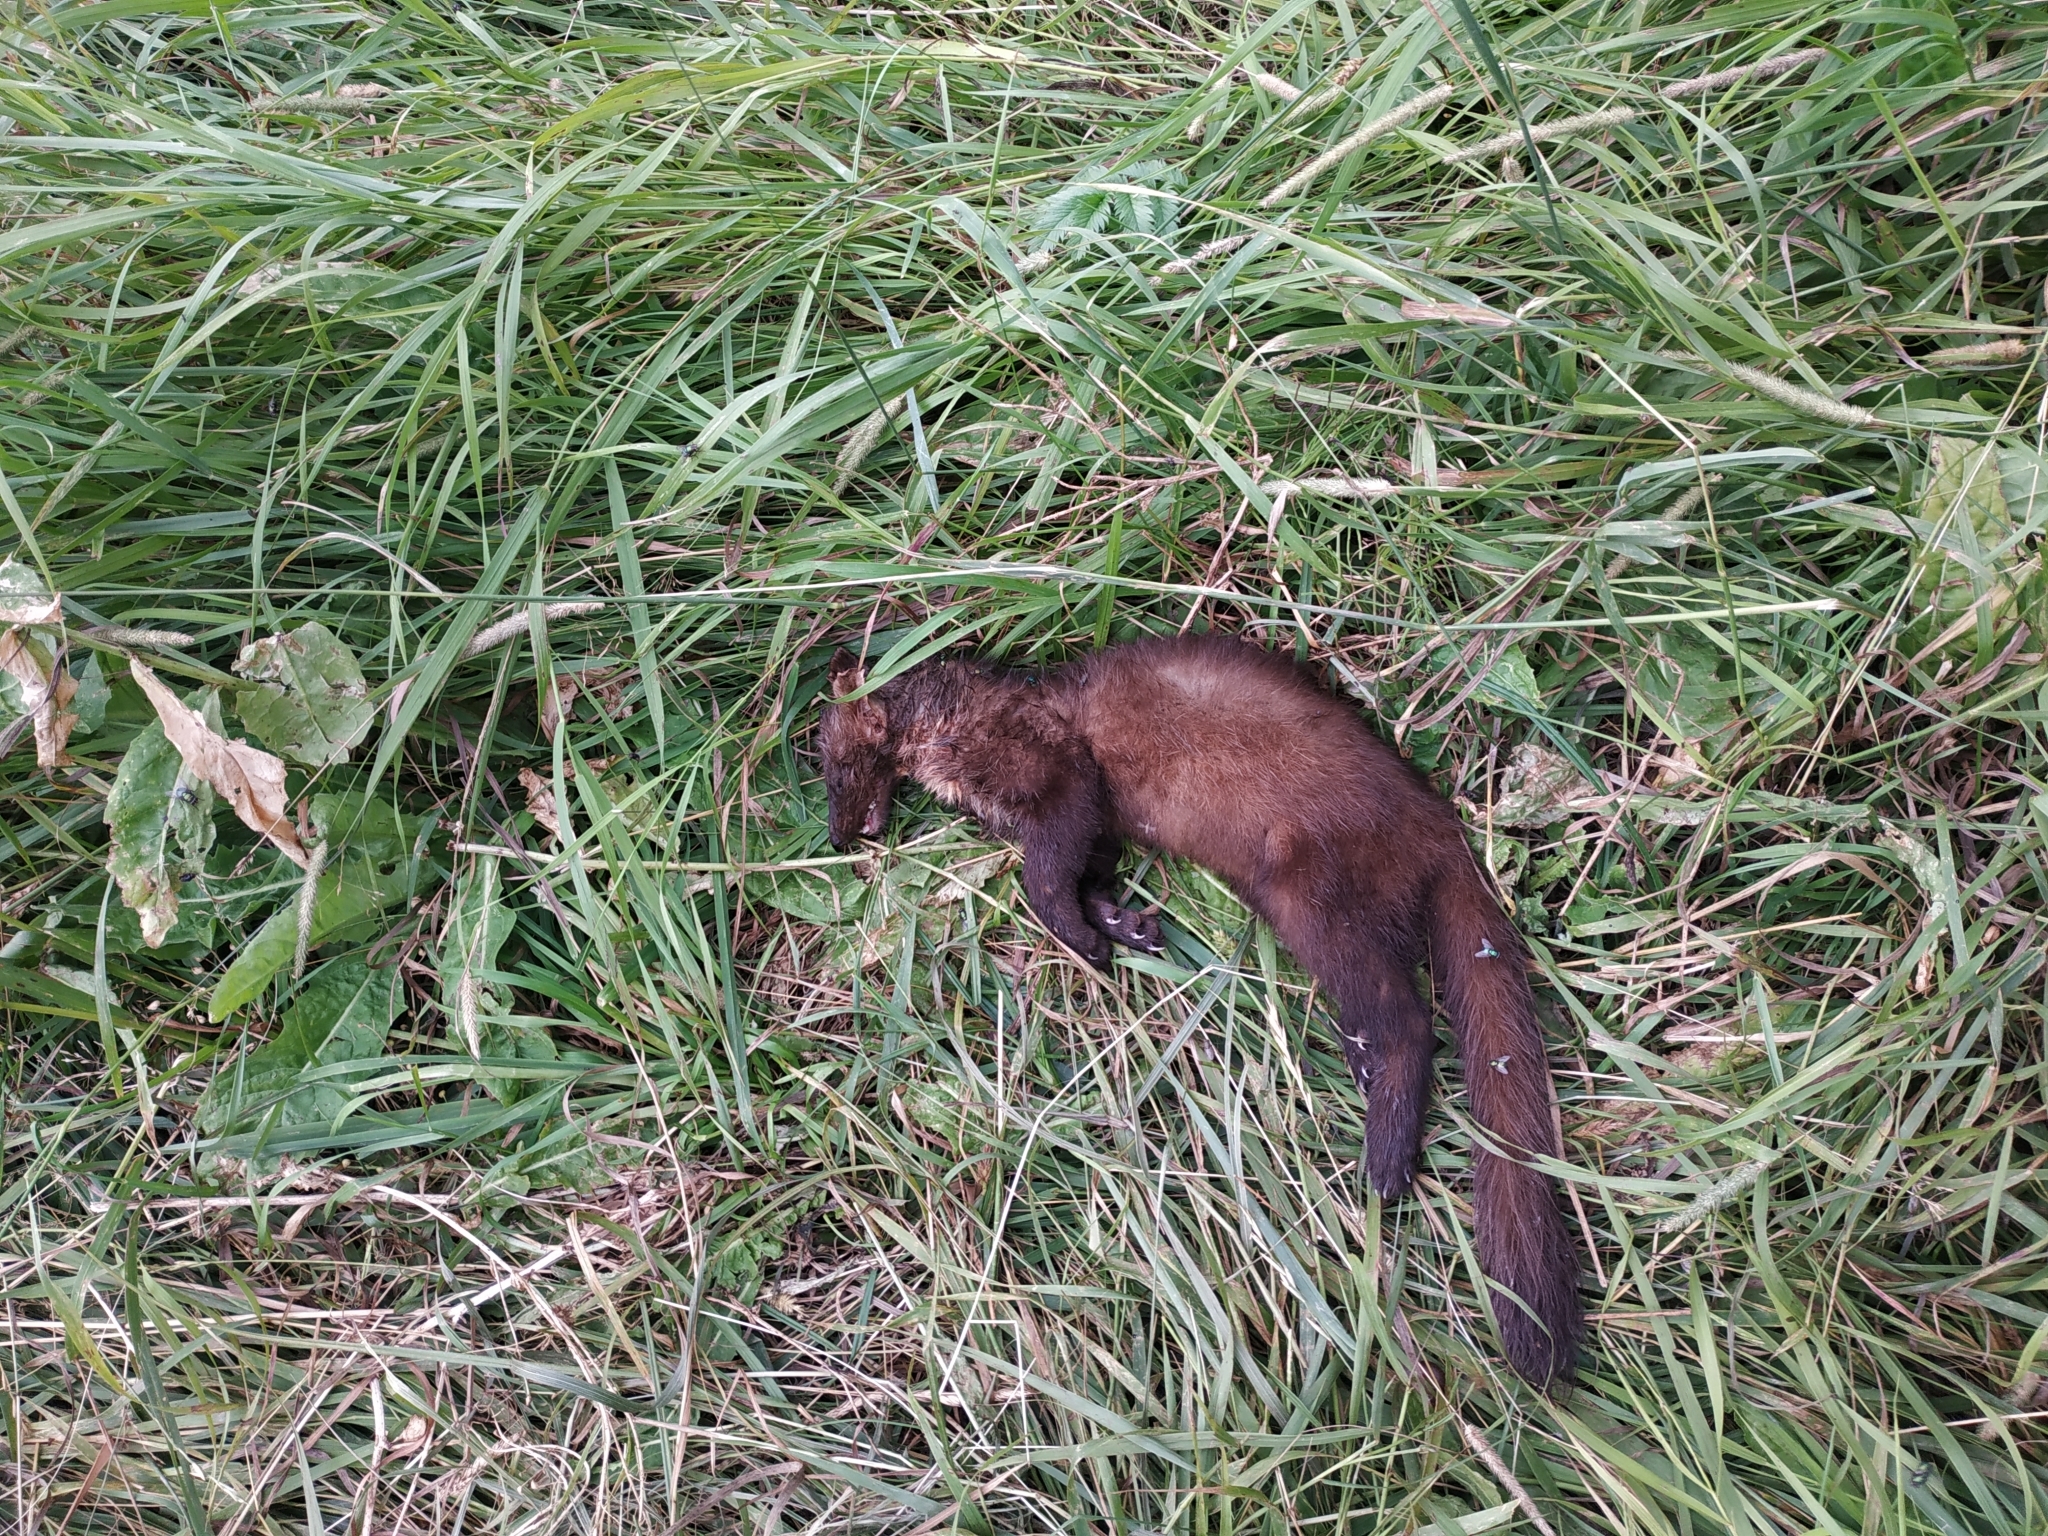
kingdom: Animalia
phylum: Chordata
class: Mammalia
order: Carnivora
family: Mustelidae
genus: Martes
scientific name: Martes martes
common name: European pine marten
